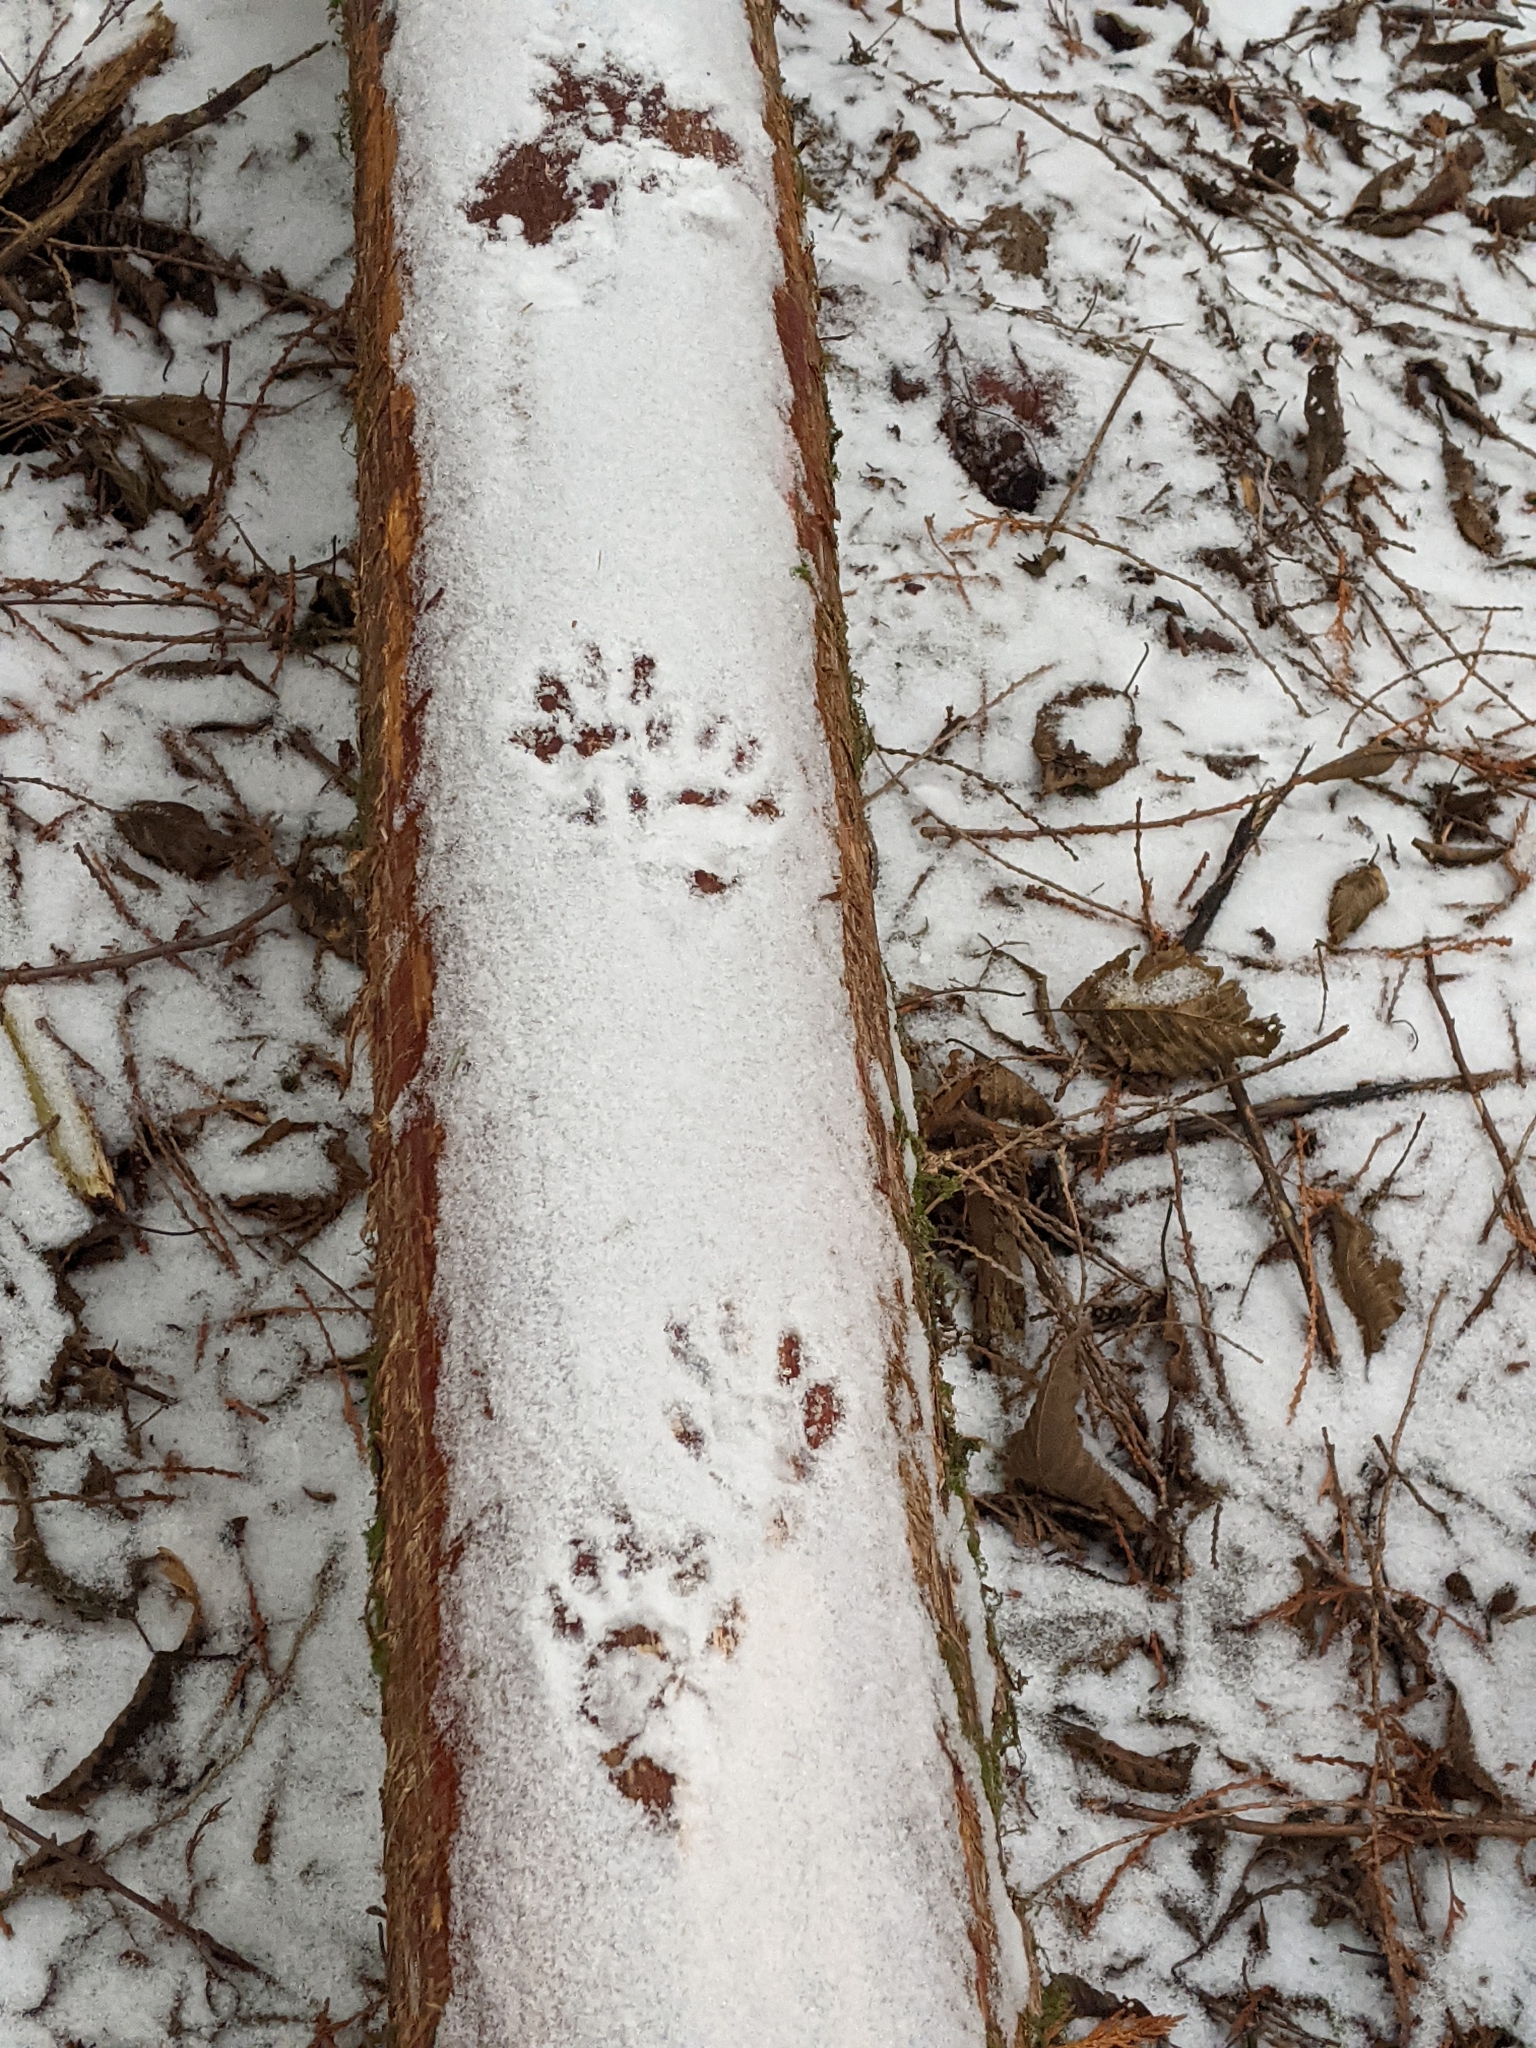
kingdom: Animalia
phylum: Chordata
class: Mammalia
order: Carnivora
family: Procyonidae
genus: Procyon
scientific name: Procyon lotor
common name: Raccoon
